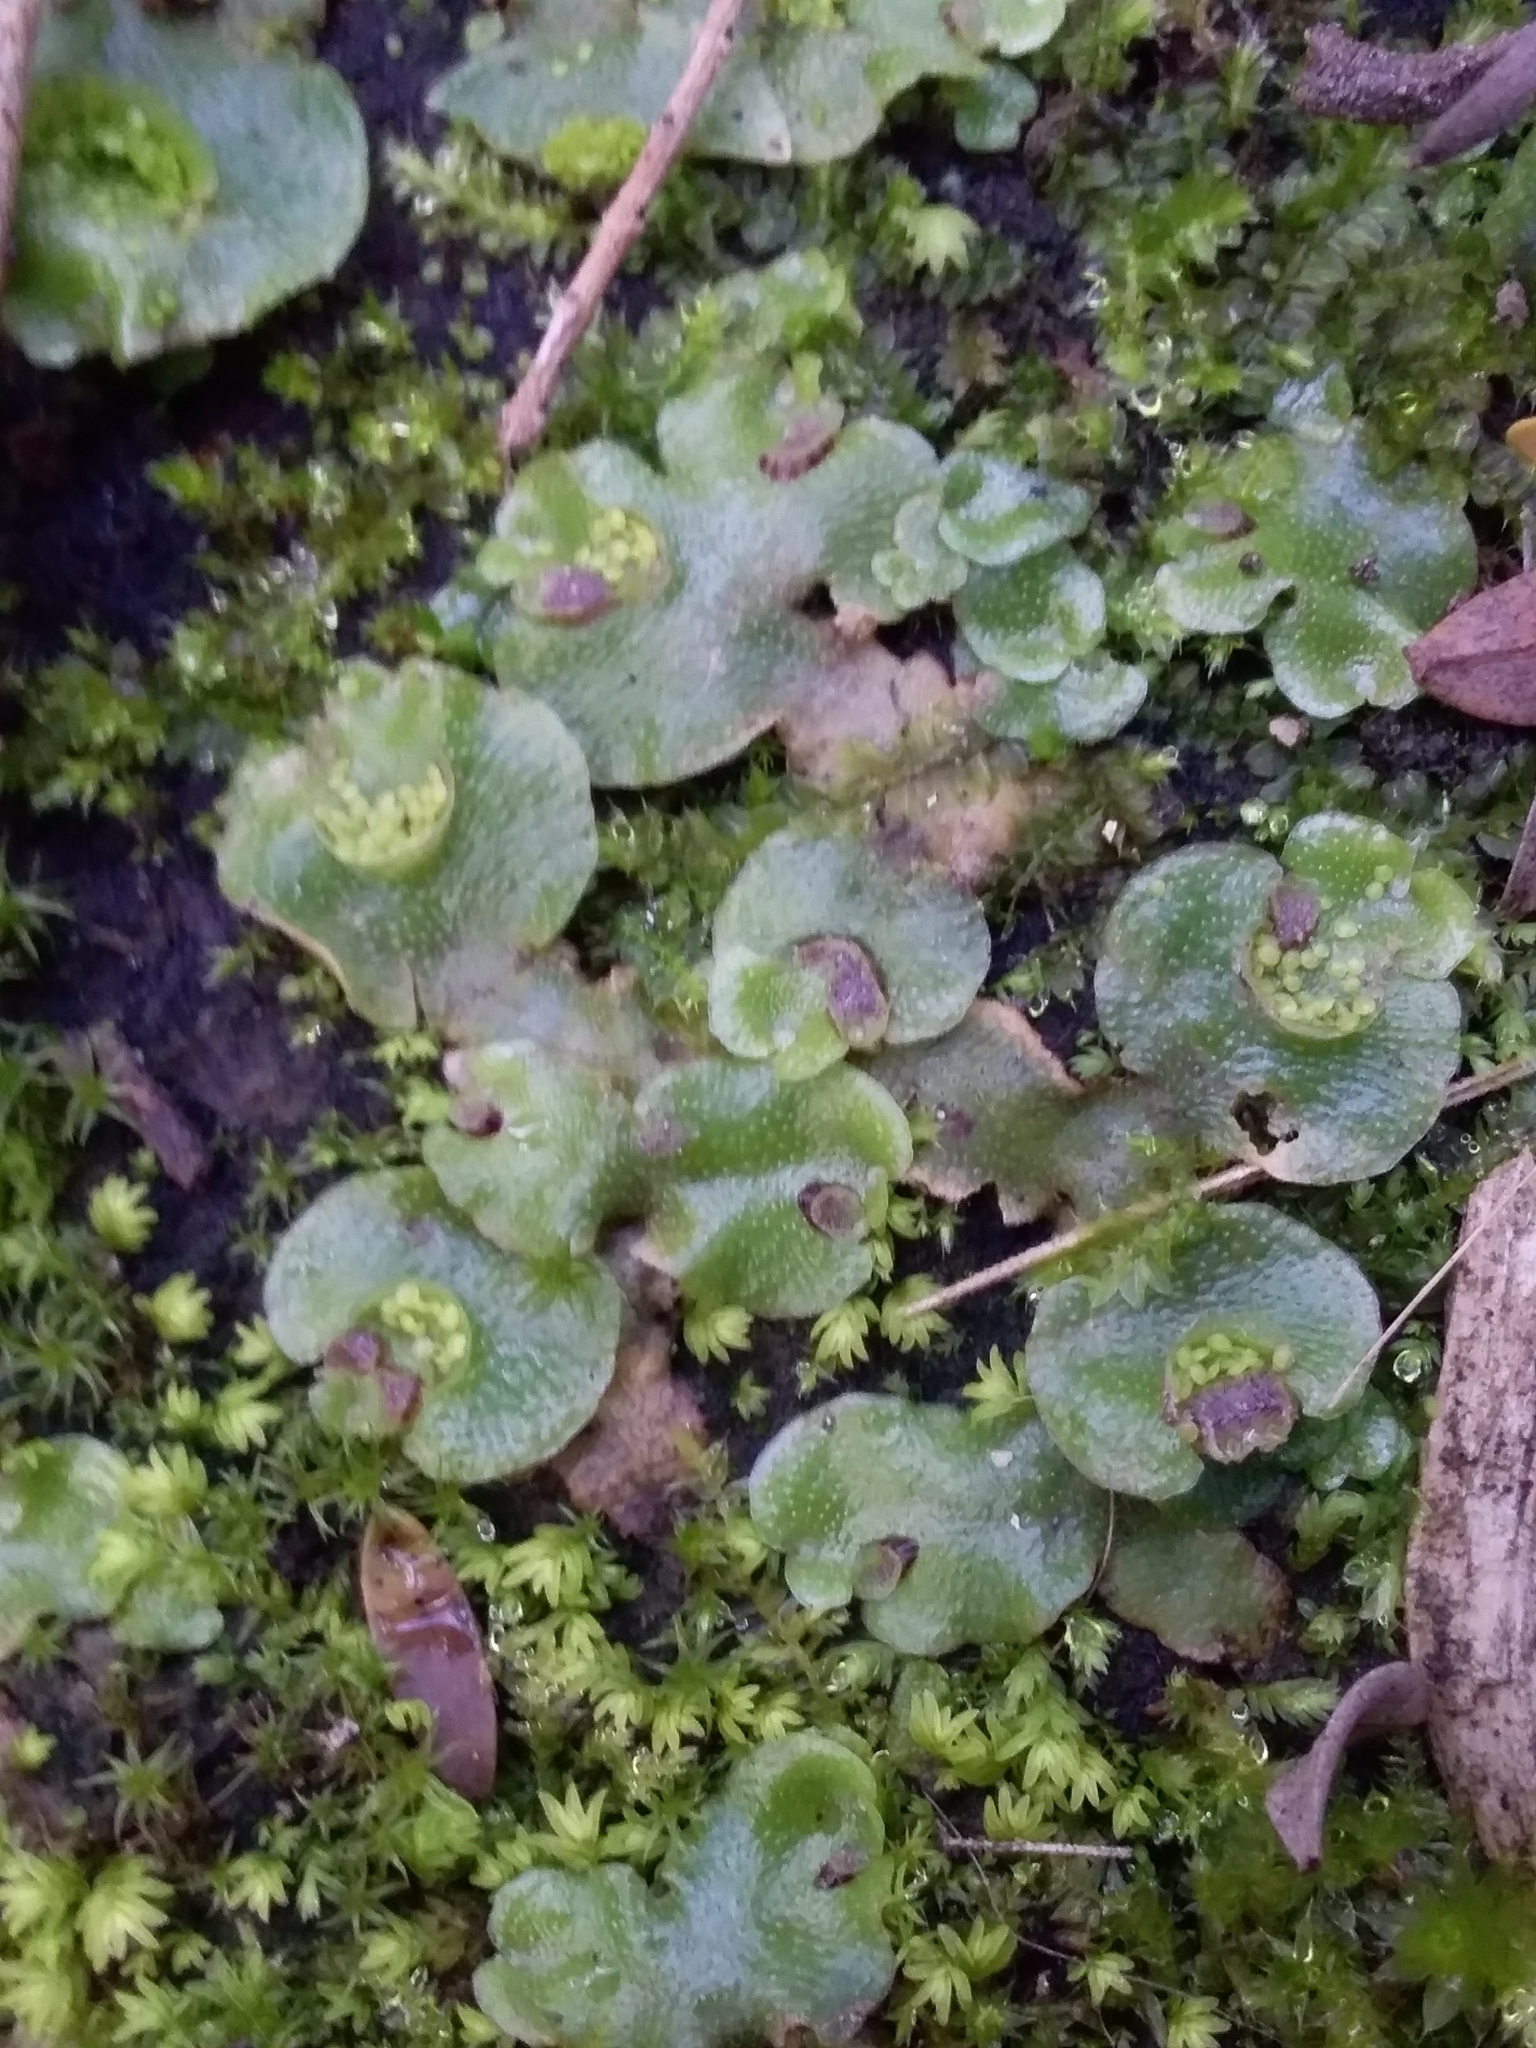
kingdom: Plantae
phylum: Marchantiophyta
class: Marchantiopsida
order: Lunulariales
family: Lunulariaceae
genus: Lunularia
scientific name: Lunularia cruciata
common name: Crescent-cup liverwort
